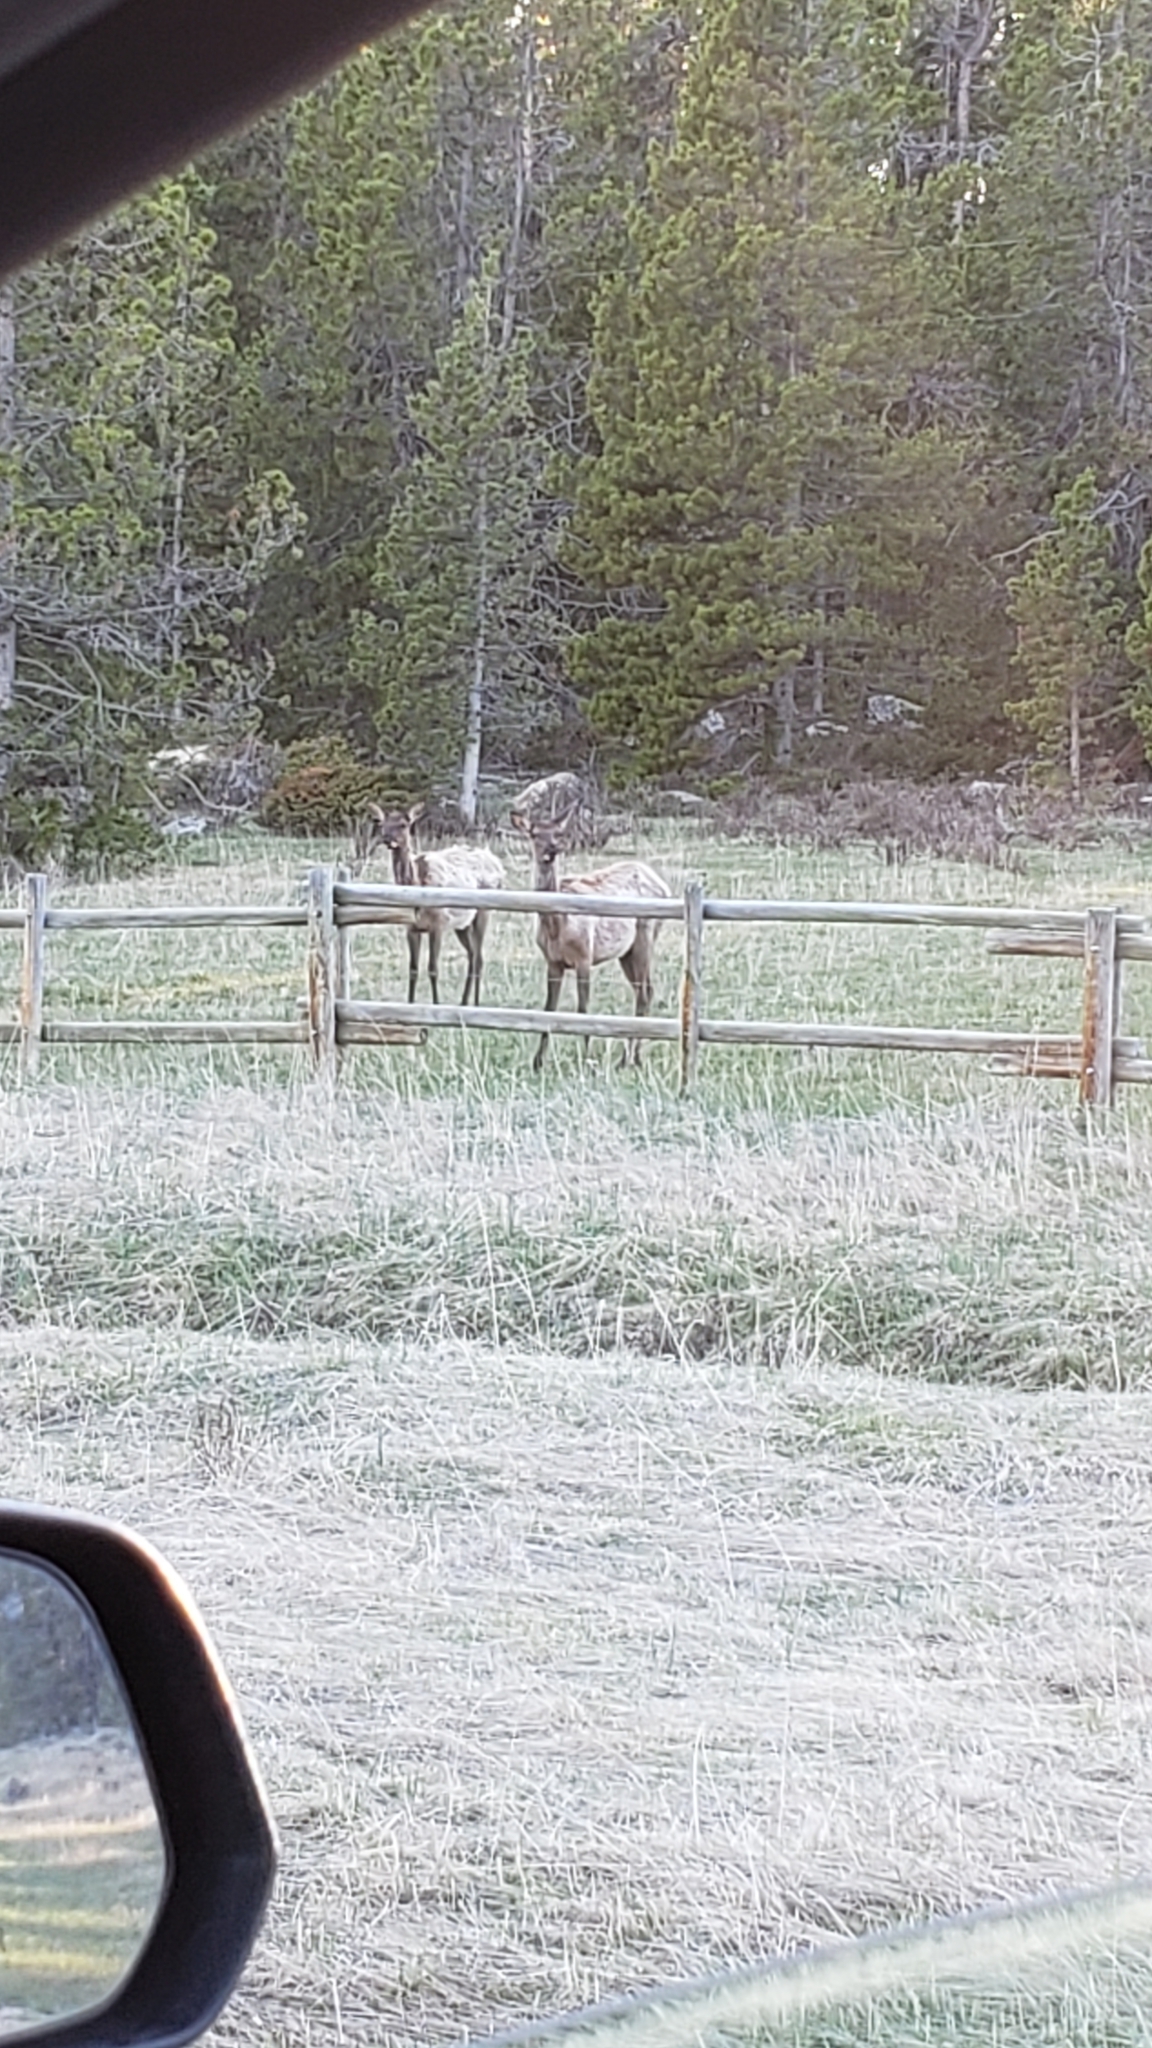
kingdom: Animalia
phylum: Chordata
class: Mammalia
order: Artiodactyla
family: Cervidae
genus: Cervus
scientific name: Cervus elaphus
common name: Red deer
